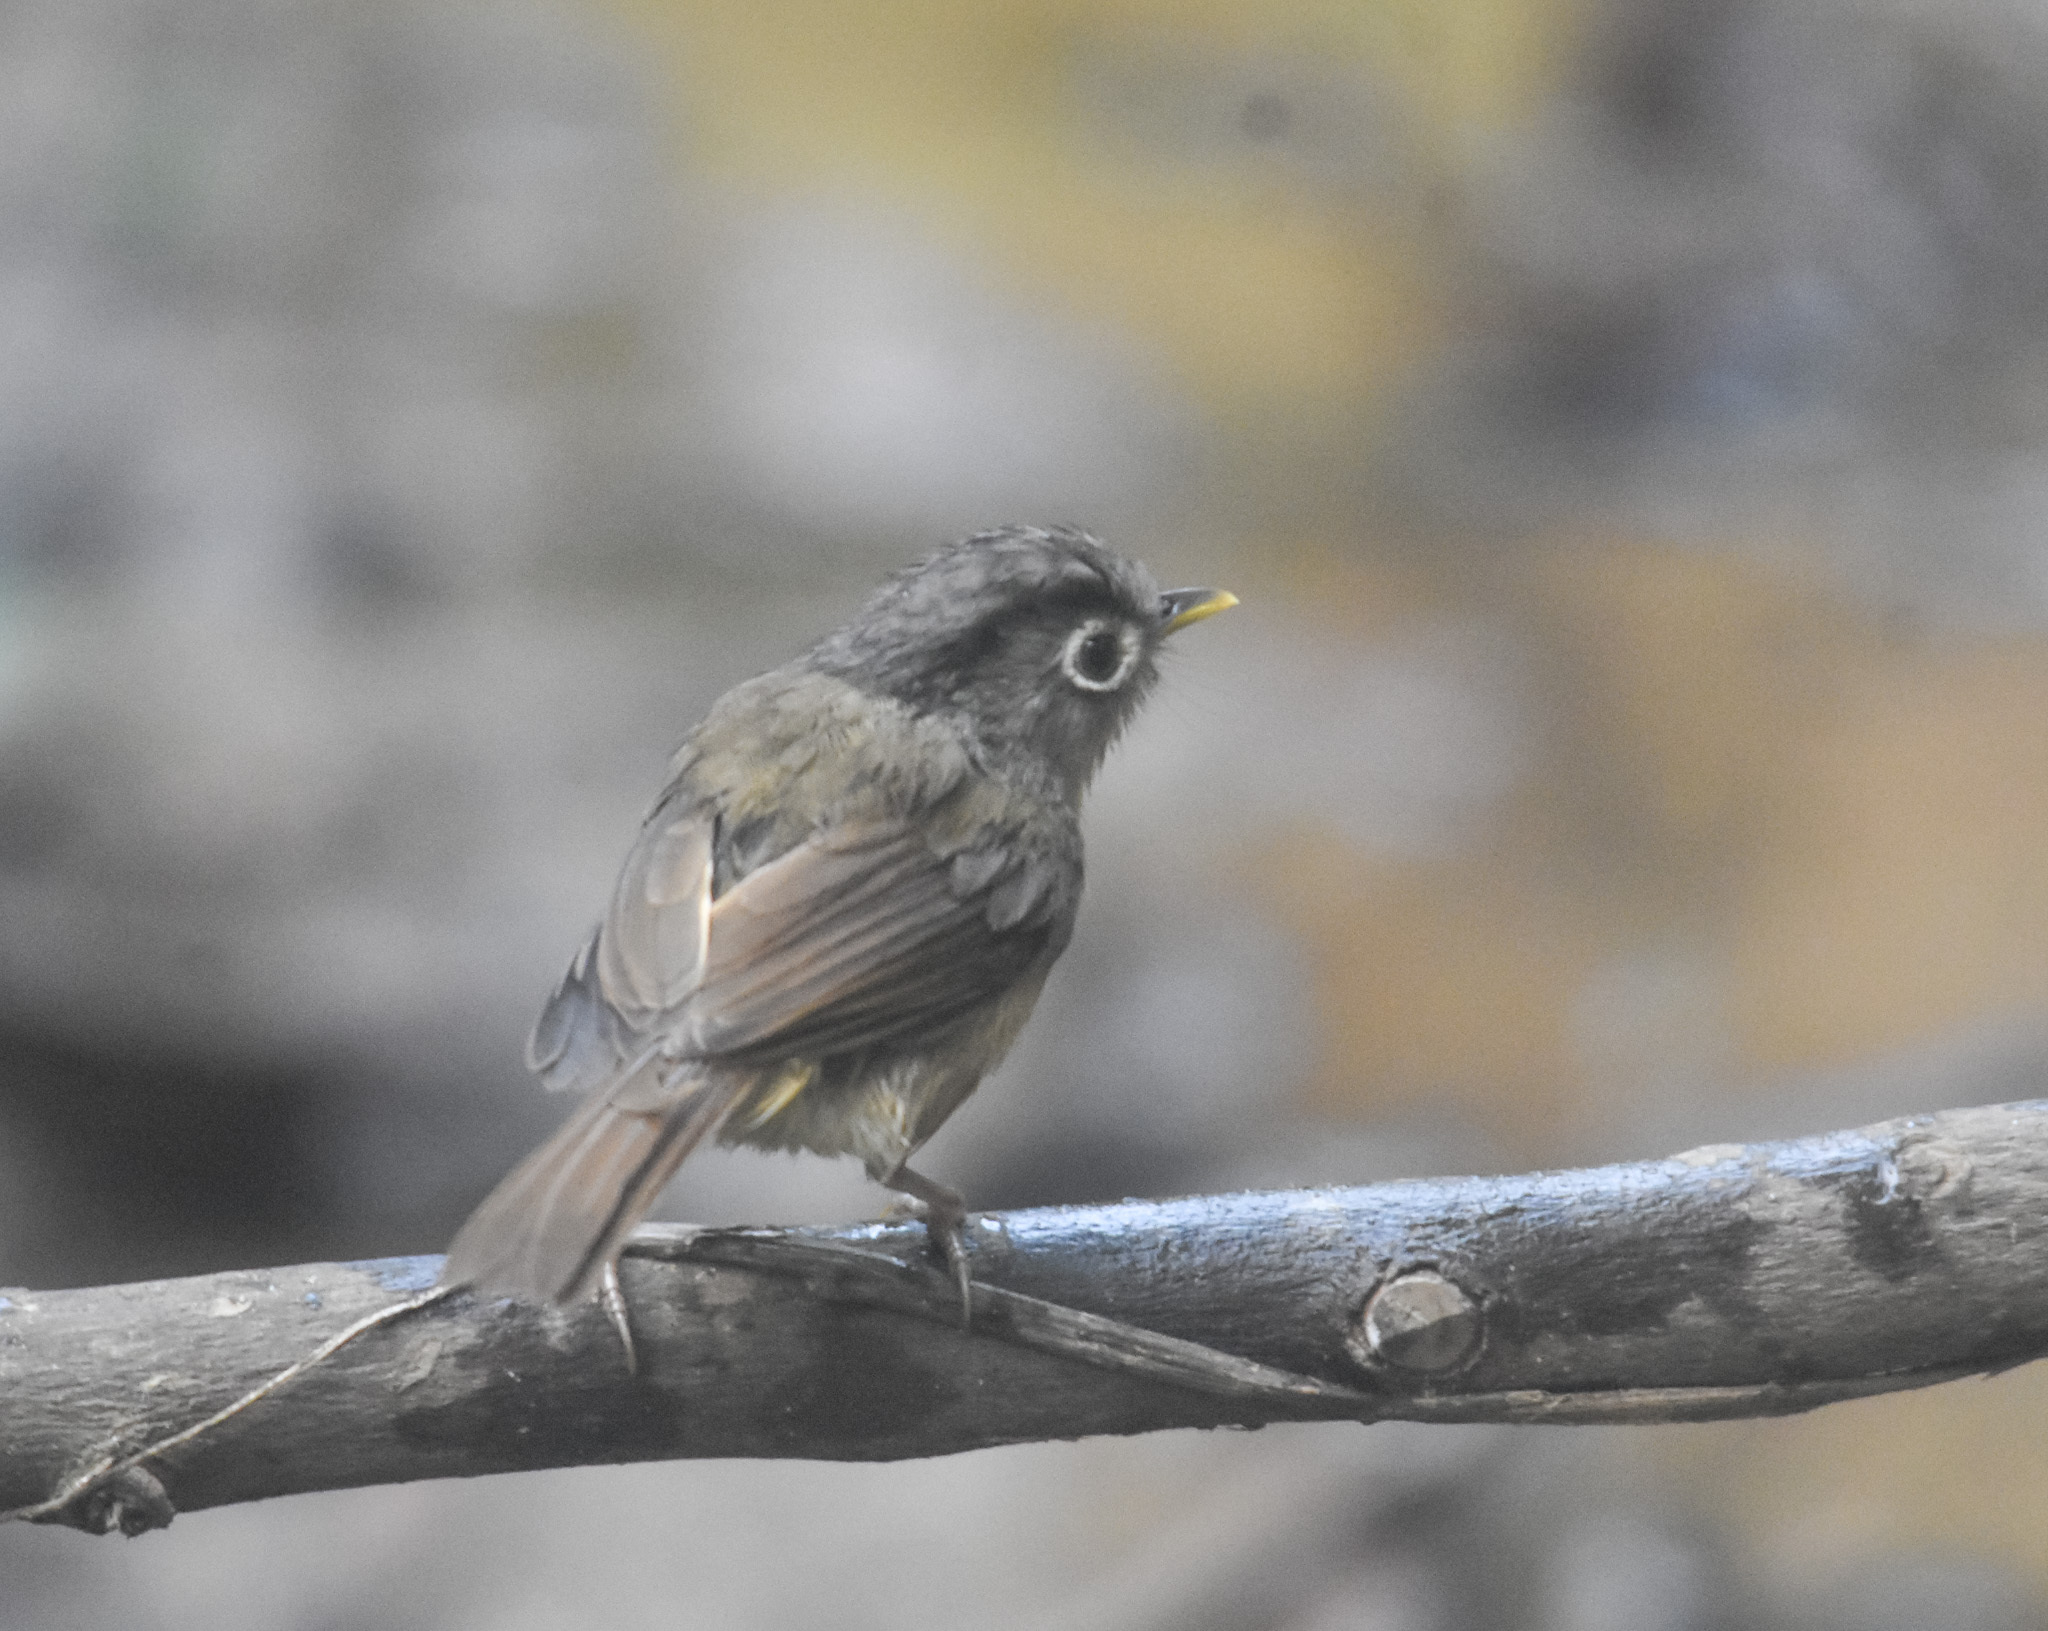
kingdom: Animalia
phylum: Chordata
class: Aves
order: Passeriformes
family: Pellorneidae
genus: Alcippe
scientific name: Alcippe nipalensis
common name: Nepal fulvetta
